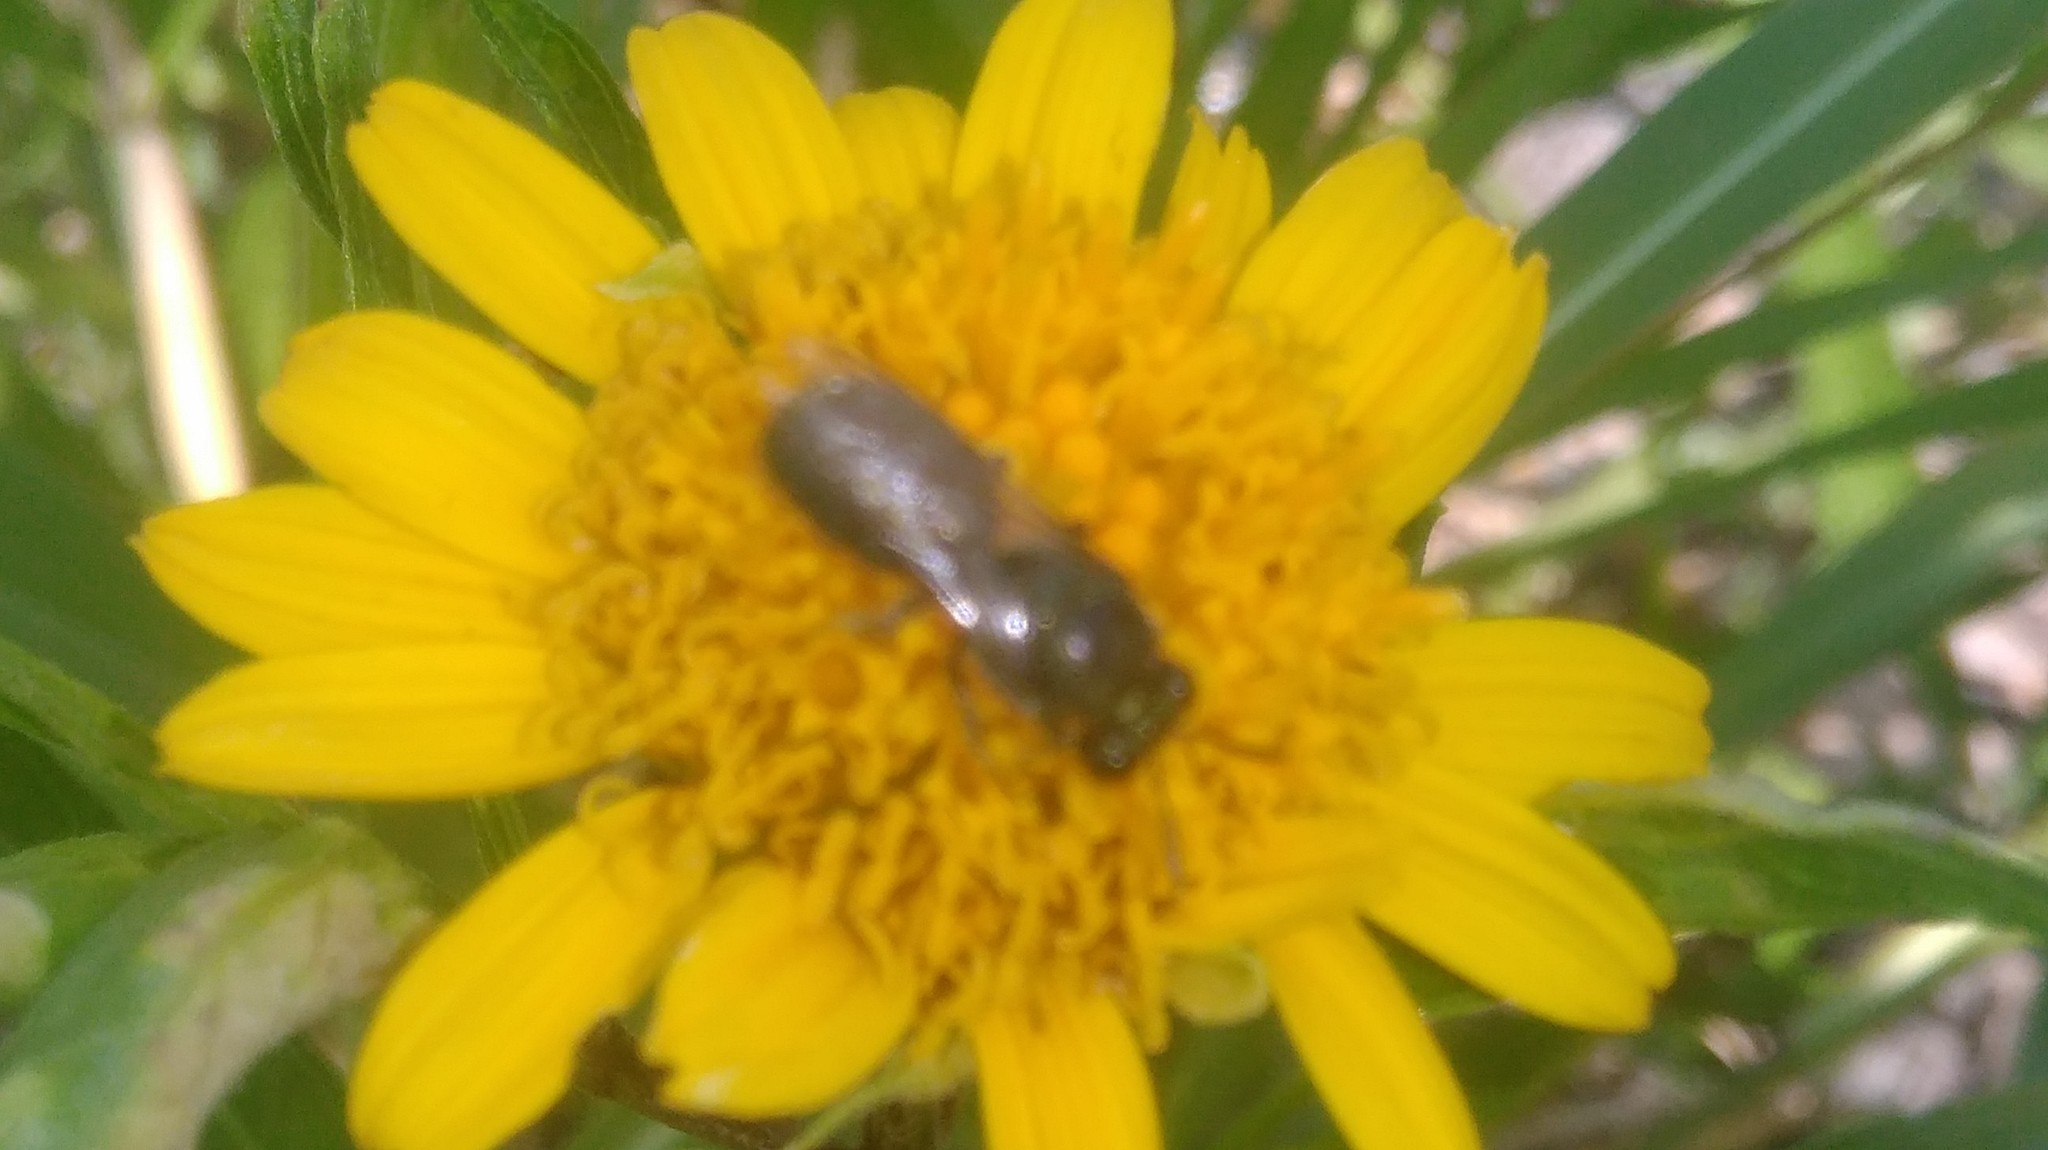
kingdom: Animalia
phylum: Arthropoda
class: Insecta
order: Hymenoptera
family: Apidae
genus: Ceratina
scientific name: Ceratina
